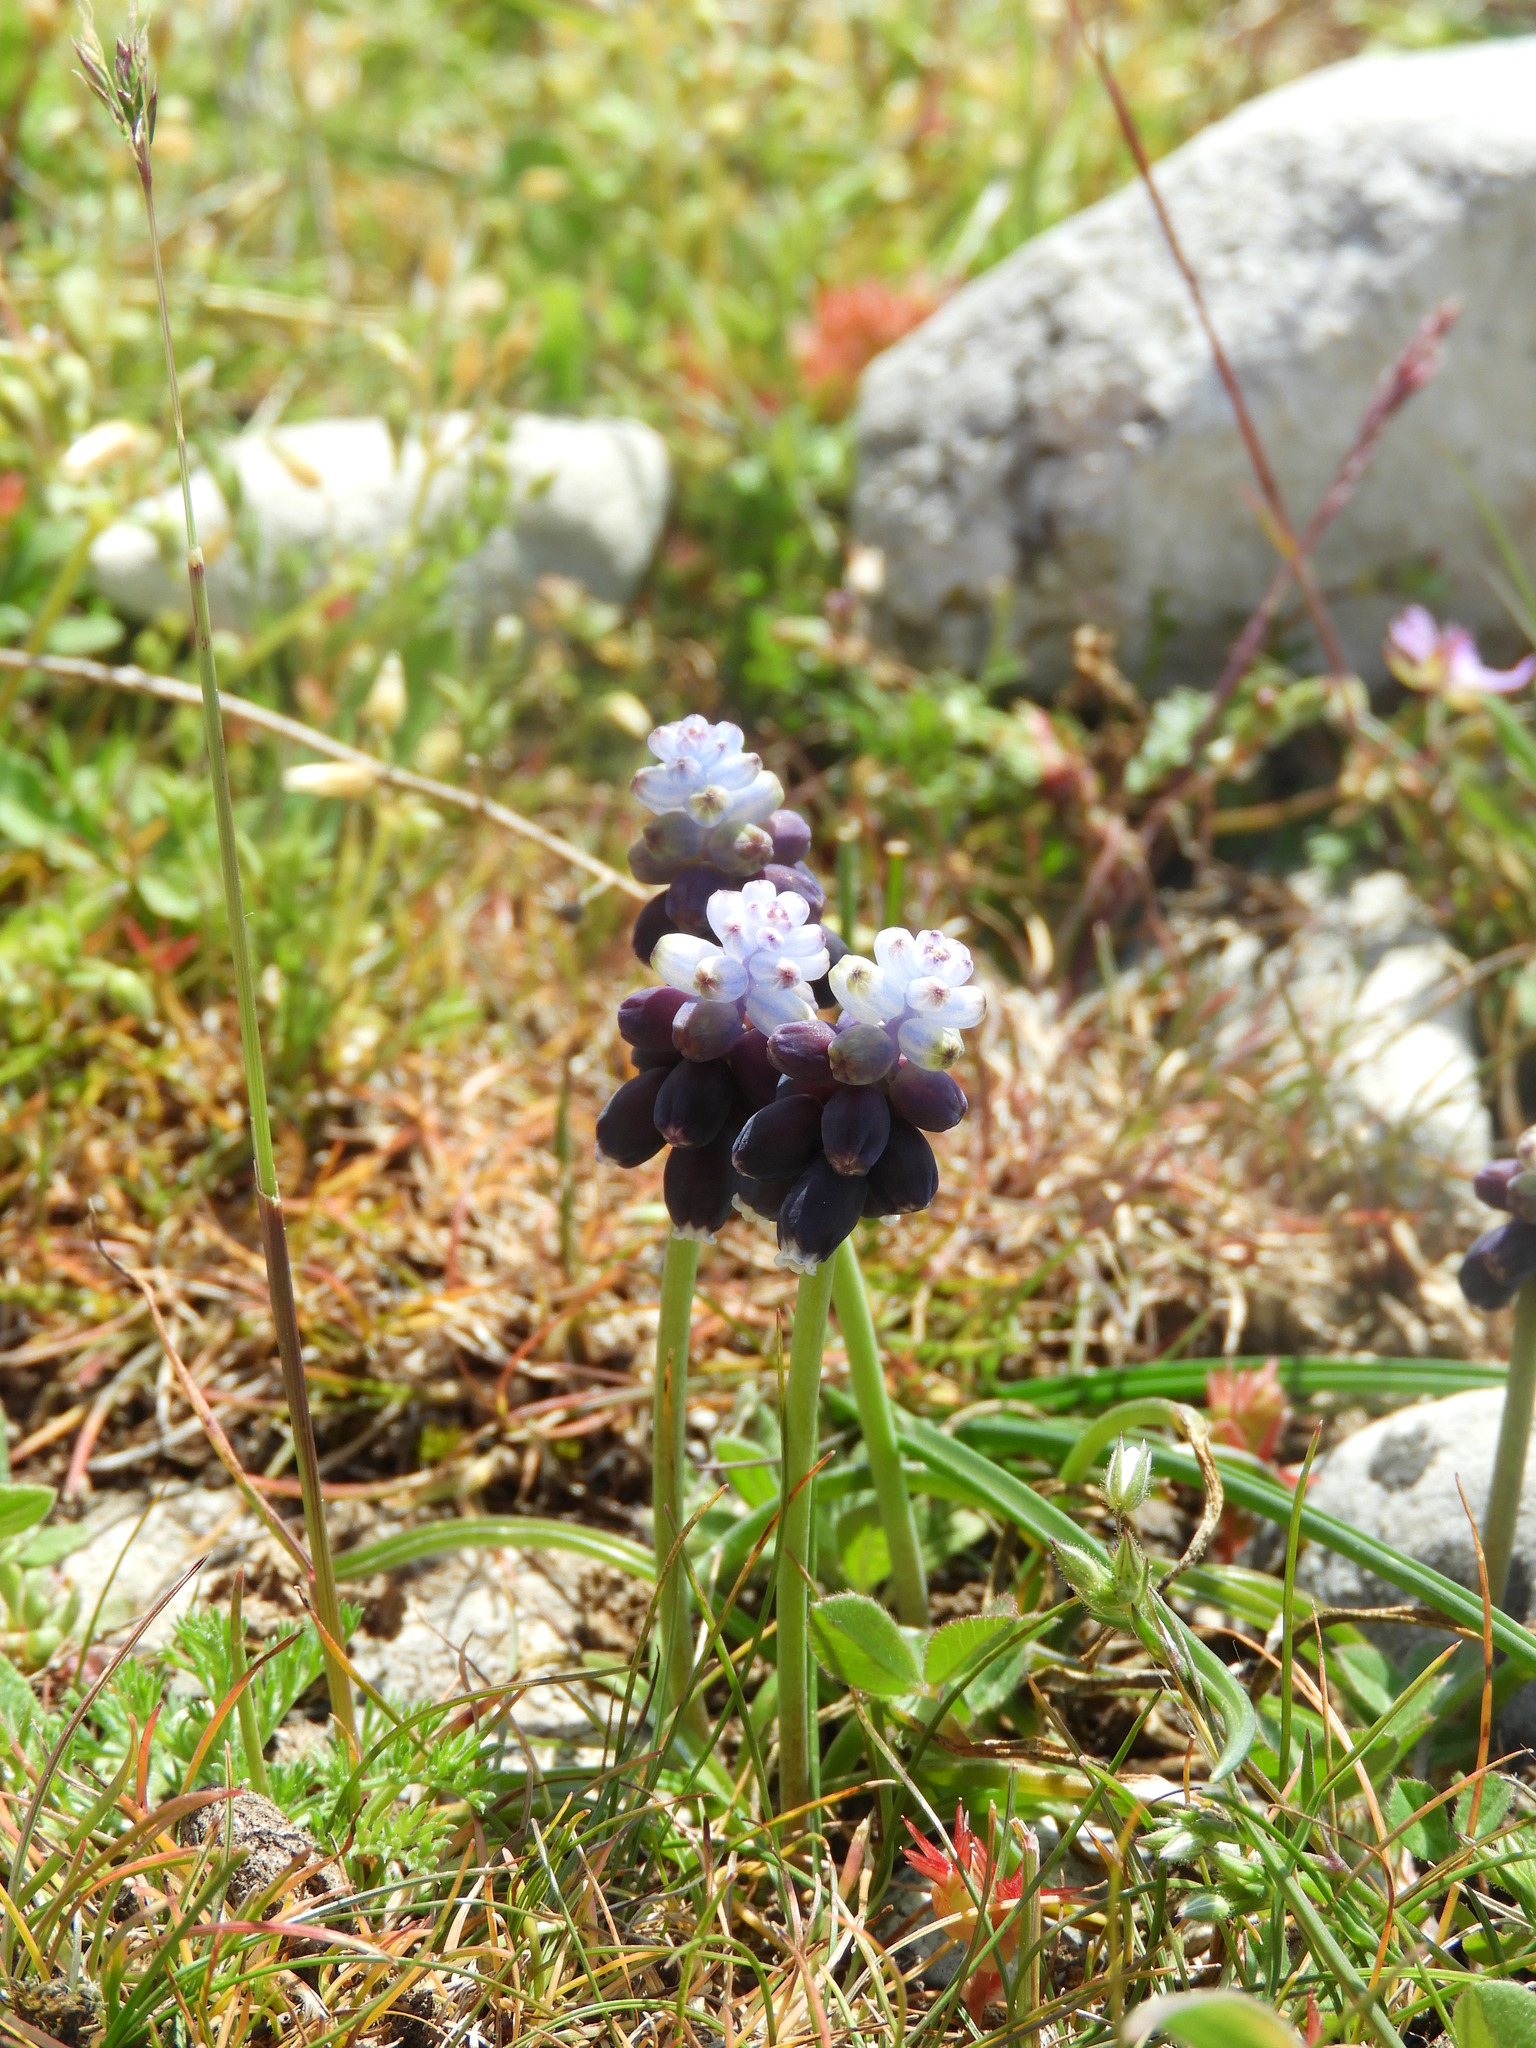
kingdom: Plantae
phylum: Tracheophyta
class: Liliopsida
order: Asparagales
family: Asparagaceae
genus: Muscari
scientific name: Muscari baeticum
